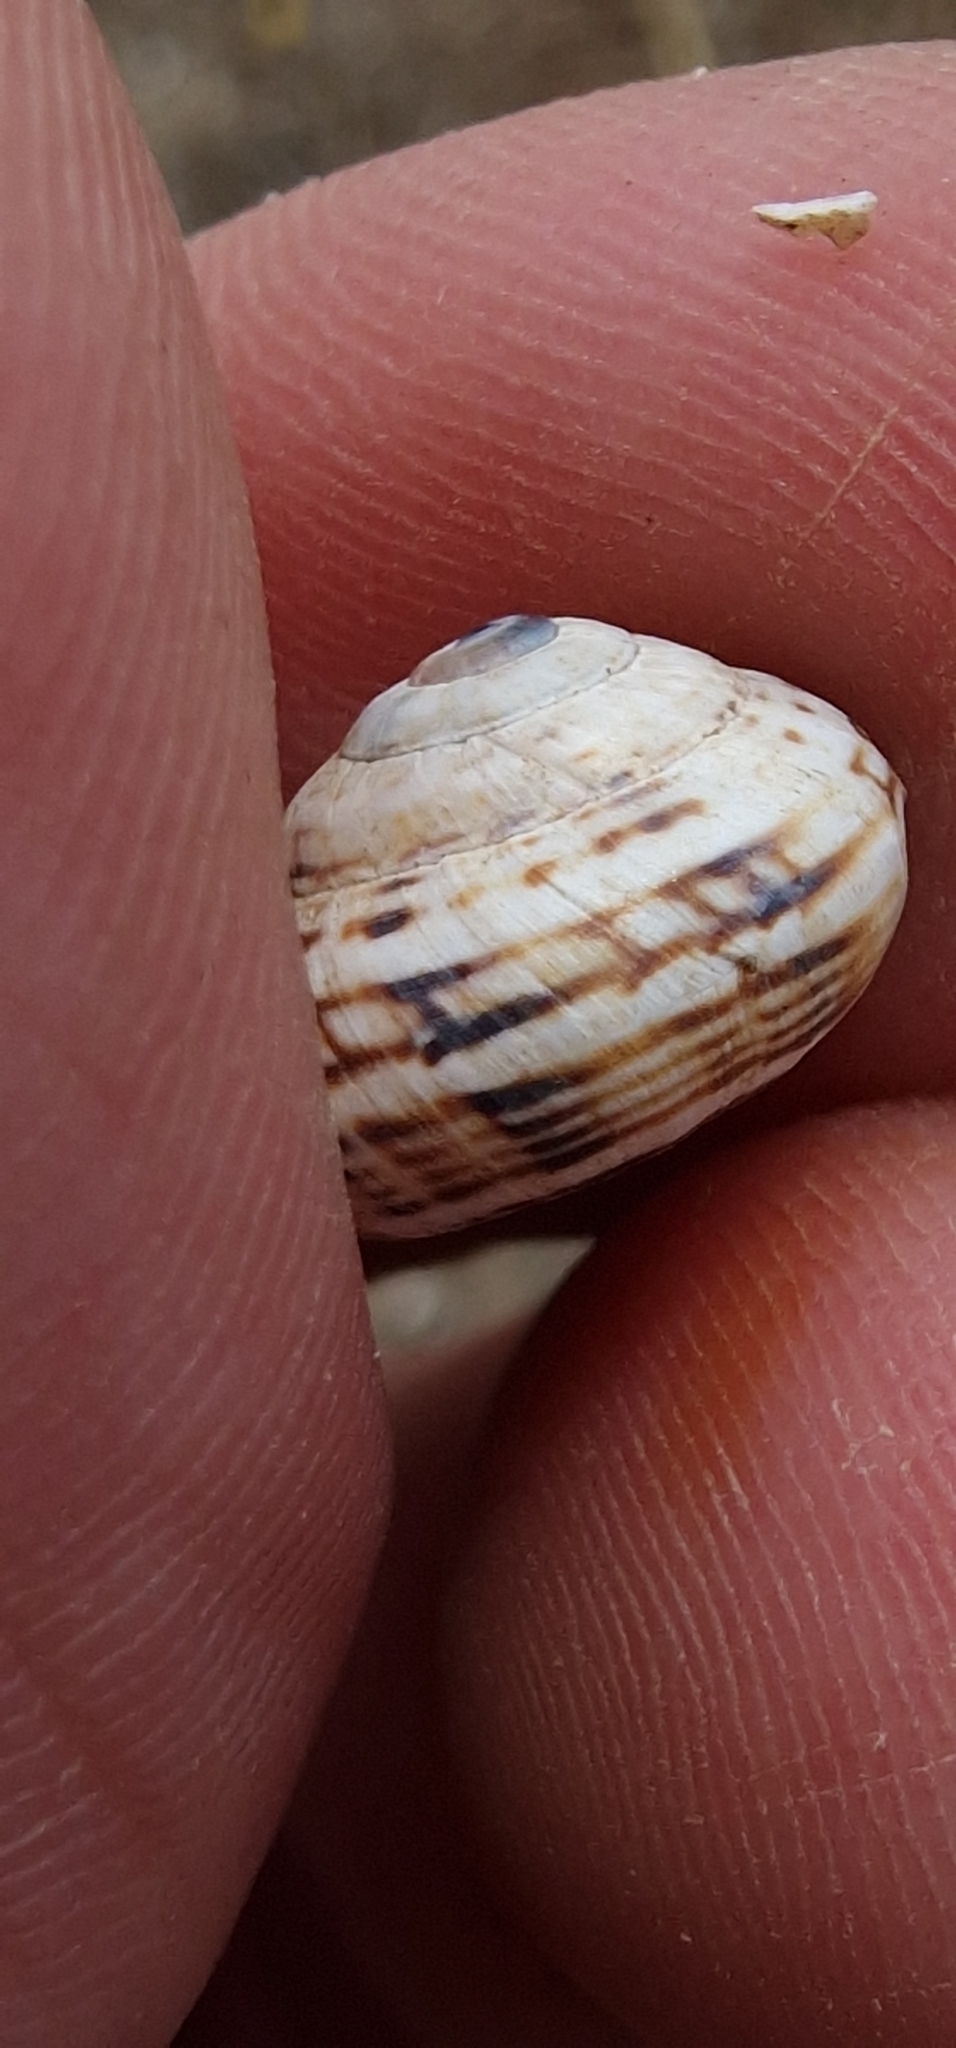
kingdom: Animalia
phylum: Mollusca
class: Gastropoda
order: Stylommatophora
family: Helicidae
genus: Theba
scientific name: Theba pisana
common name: White snail
